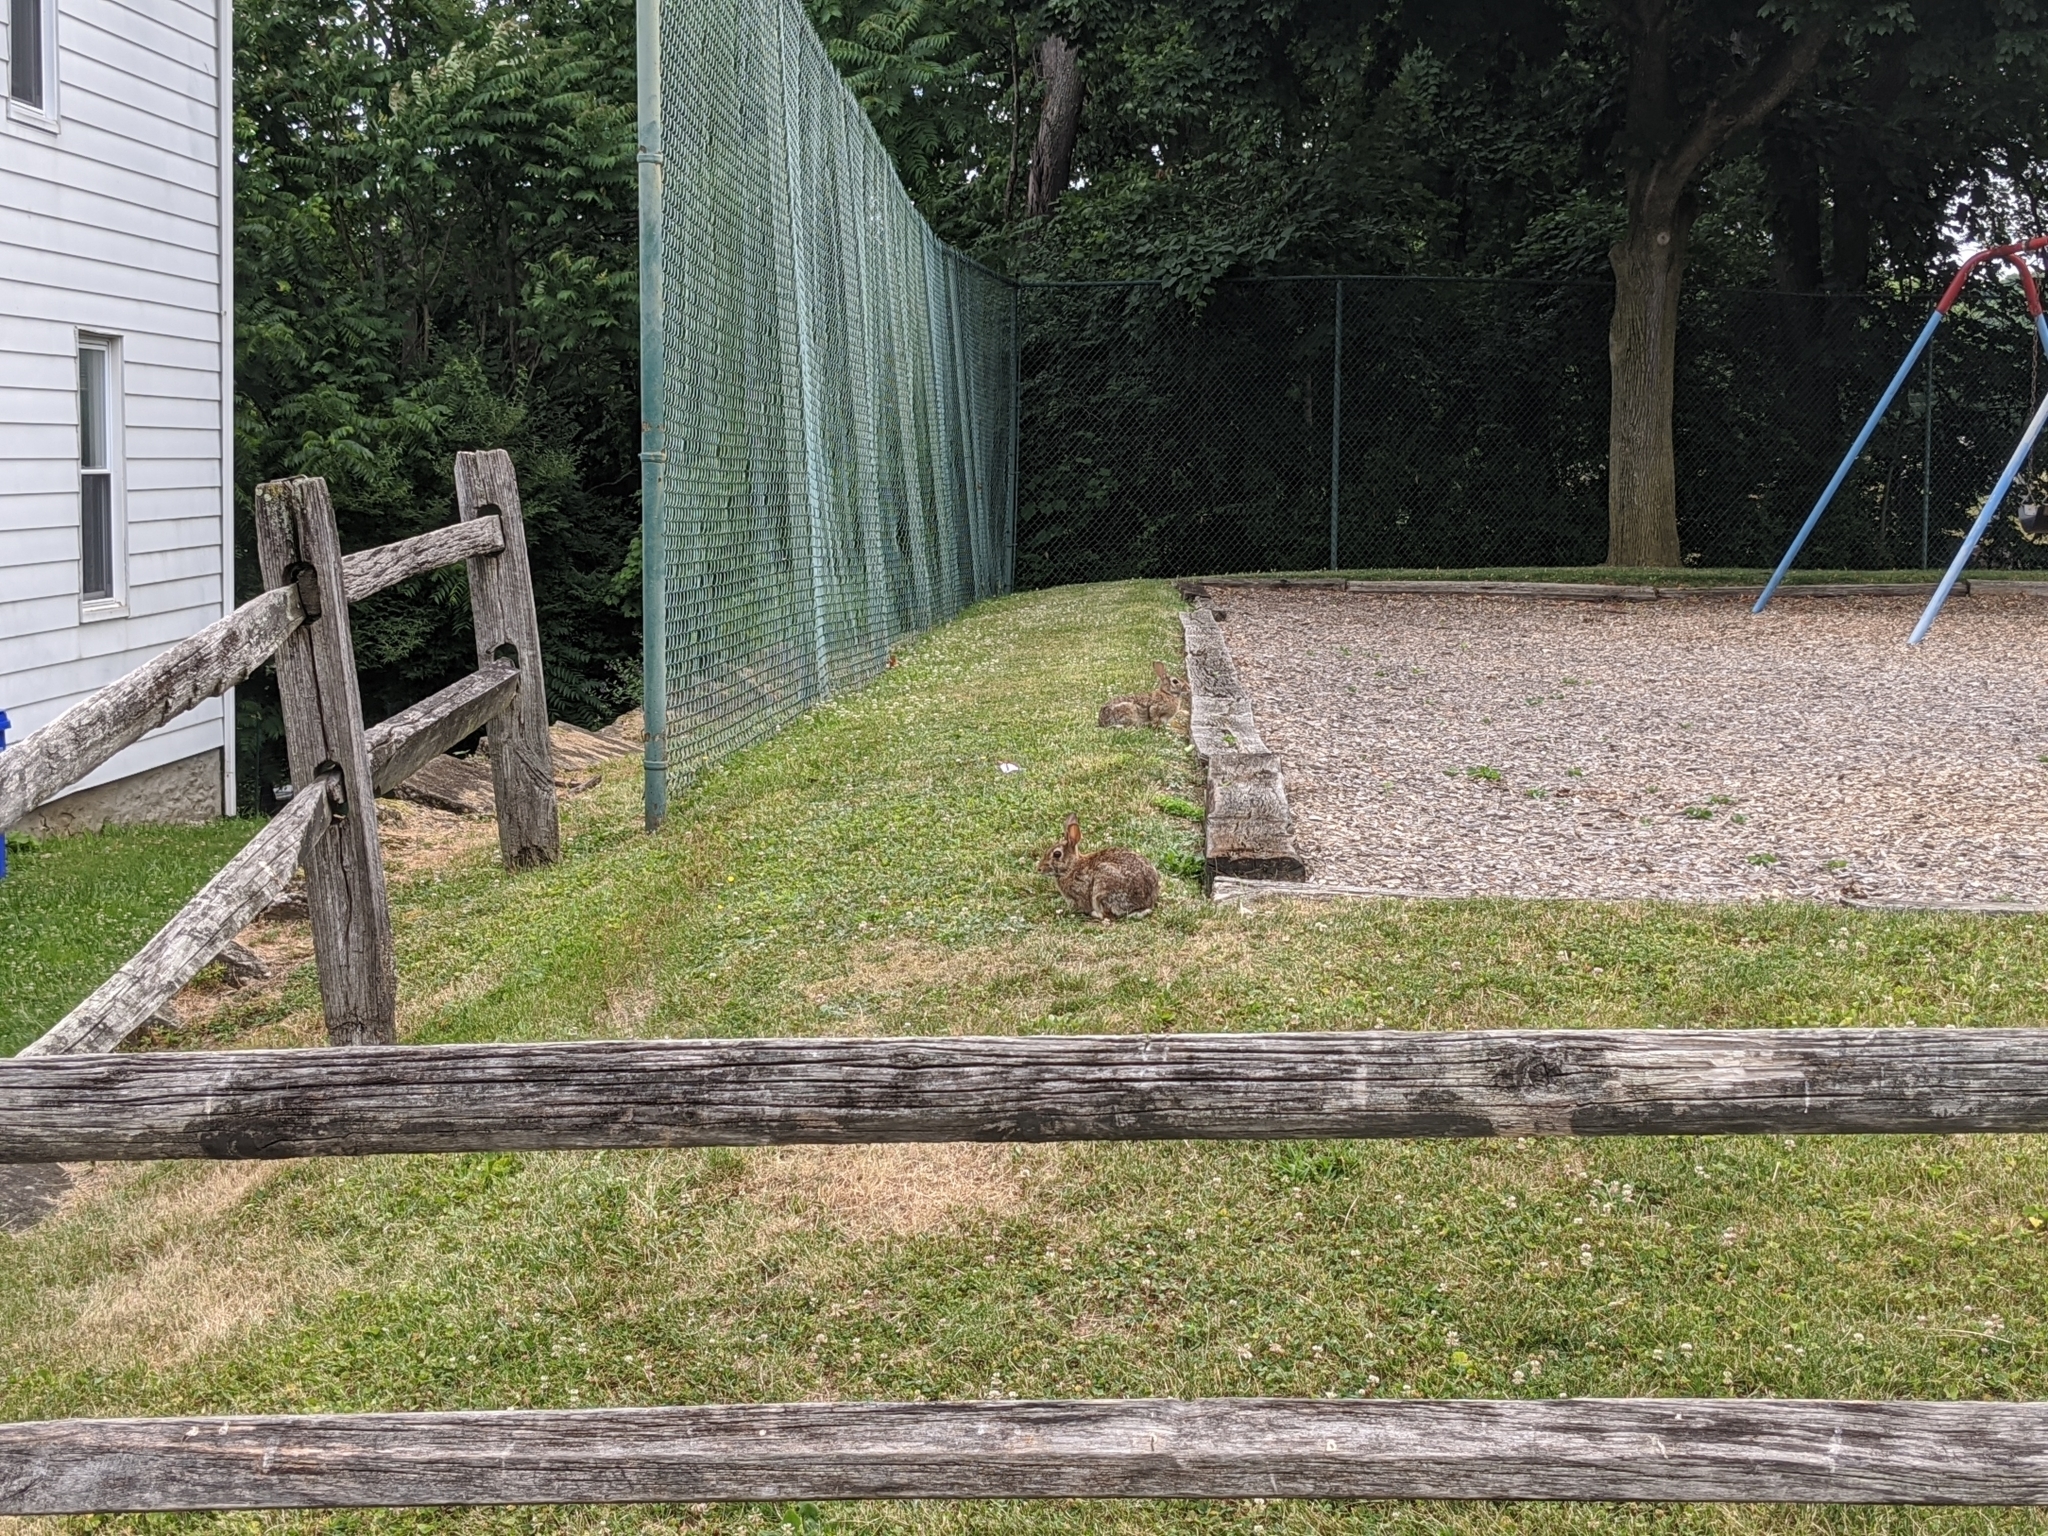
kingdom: Animalia
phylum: Chordata
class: Mammalia
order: Lagomorpha
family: Leporidae
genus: Sylvilagus
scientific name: Sylvilagus floridanus
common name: Eastern cottontail
